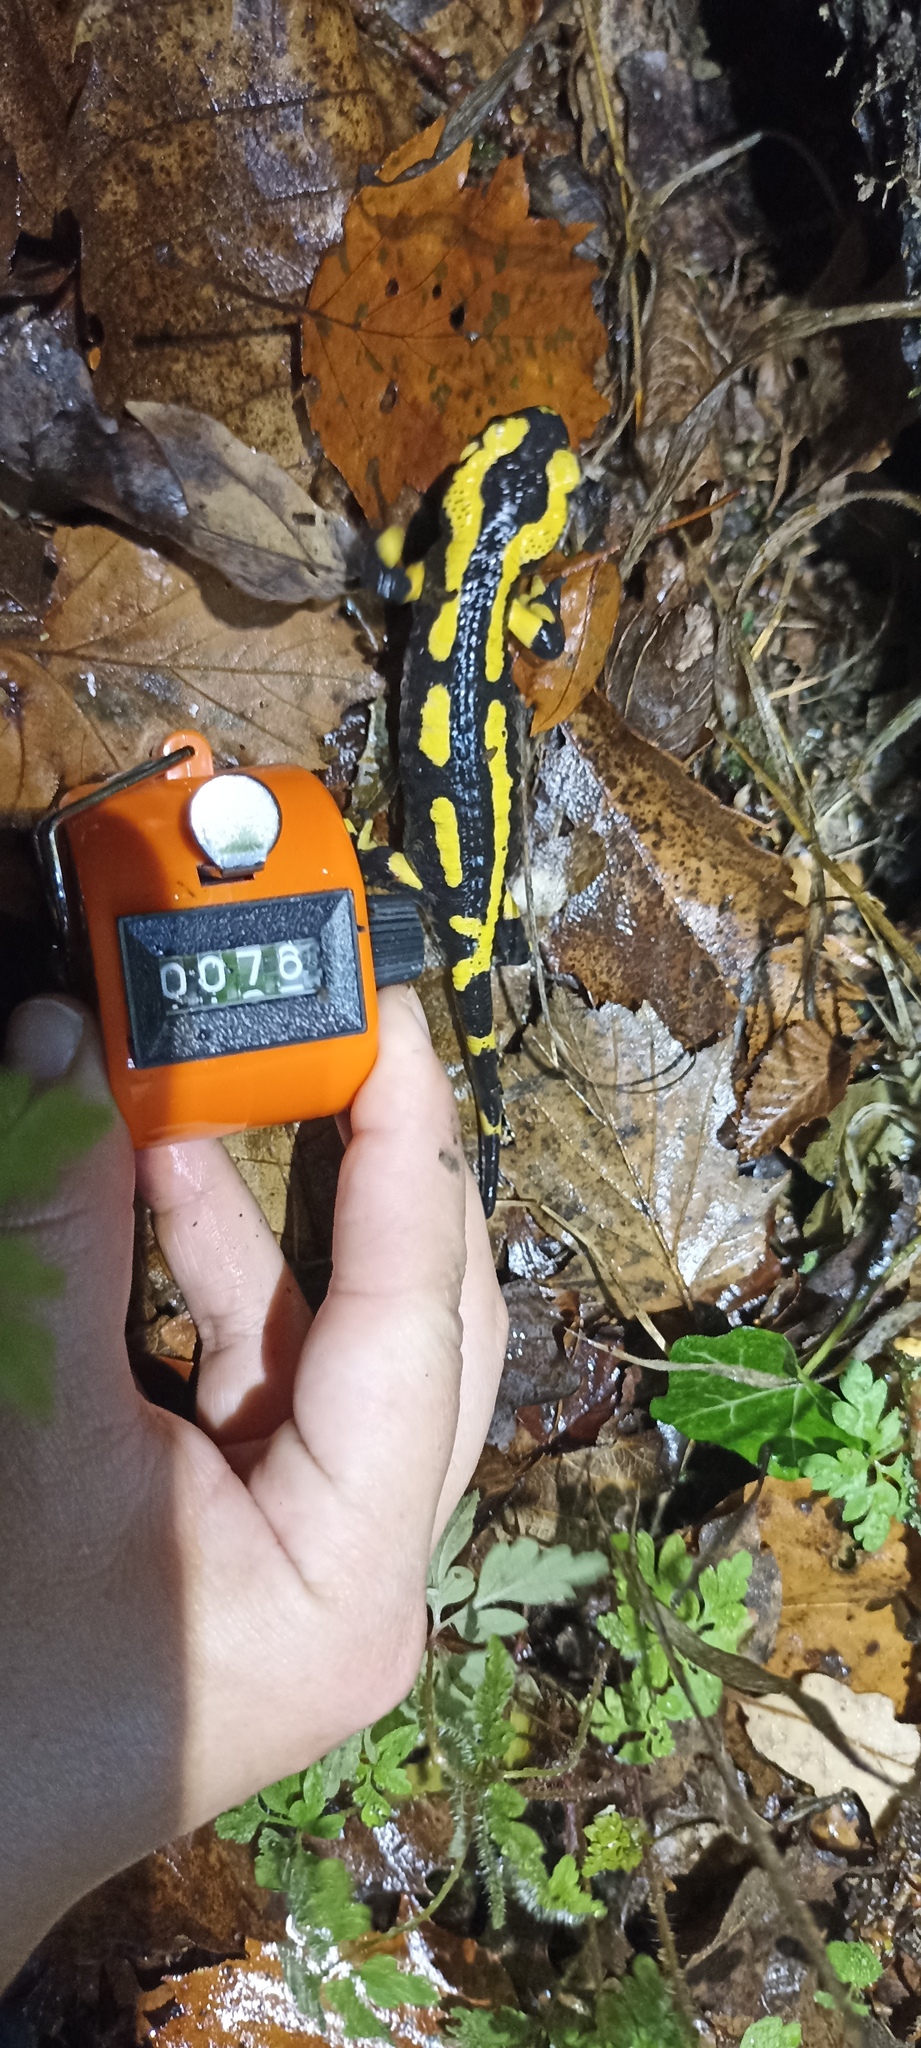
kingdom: Animalia
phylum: Chordata
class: Amphibia
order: Caudata
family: Salamandridae
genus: Salamandra
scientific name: Salamandra salamandra
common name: Fire salamander
